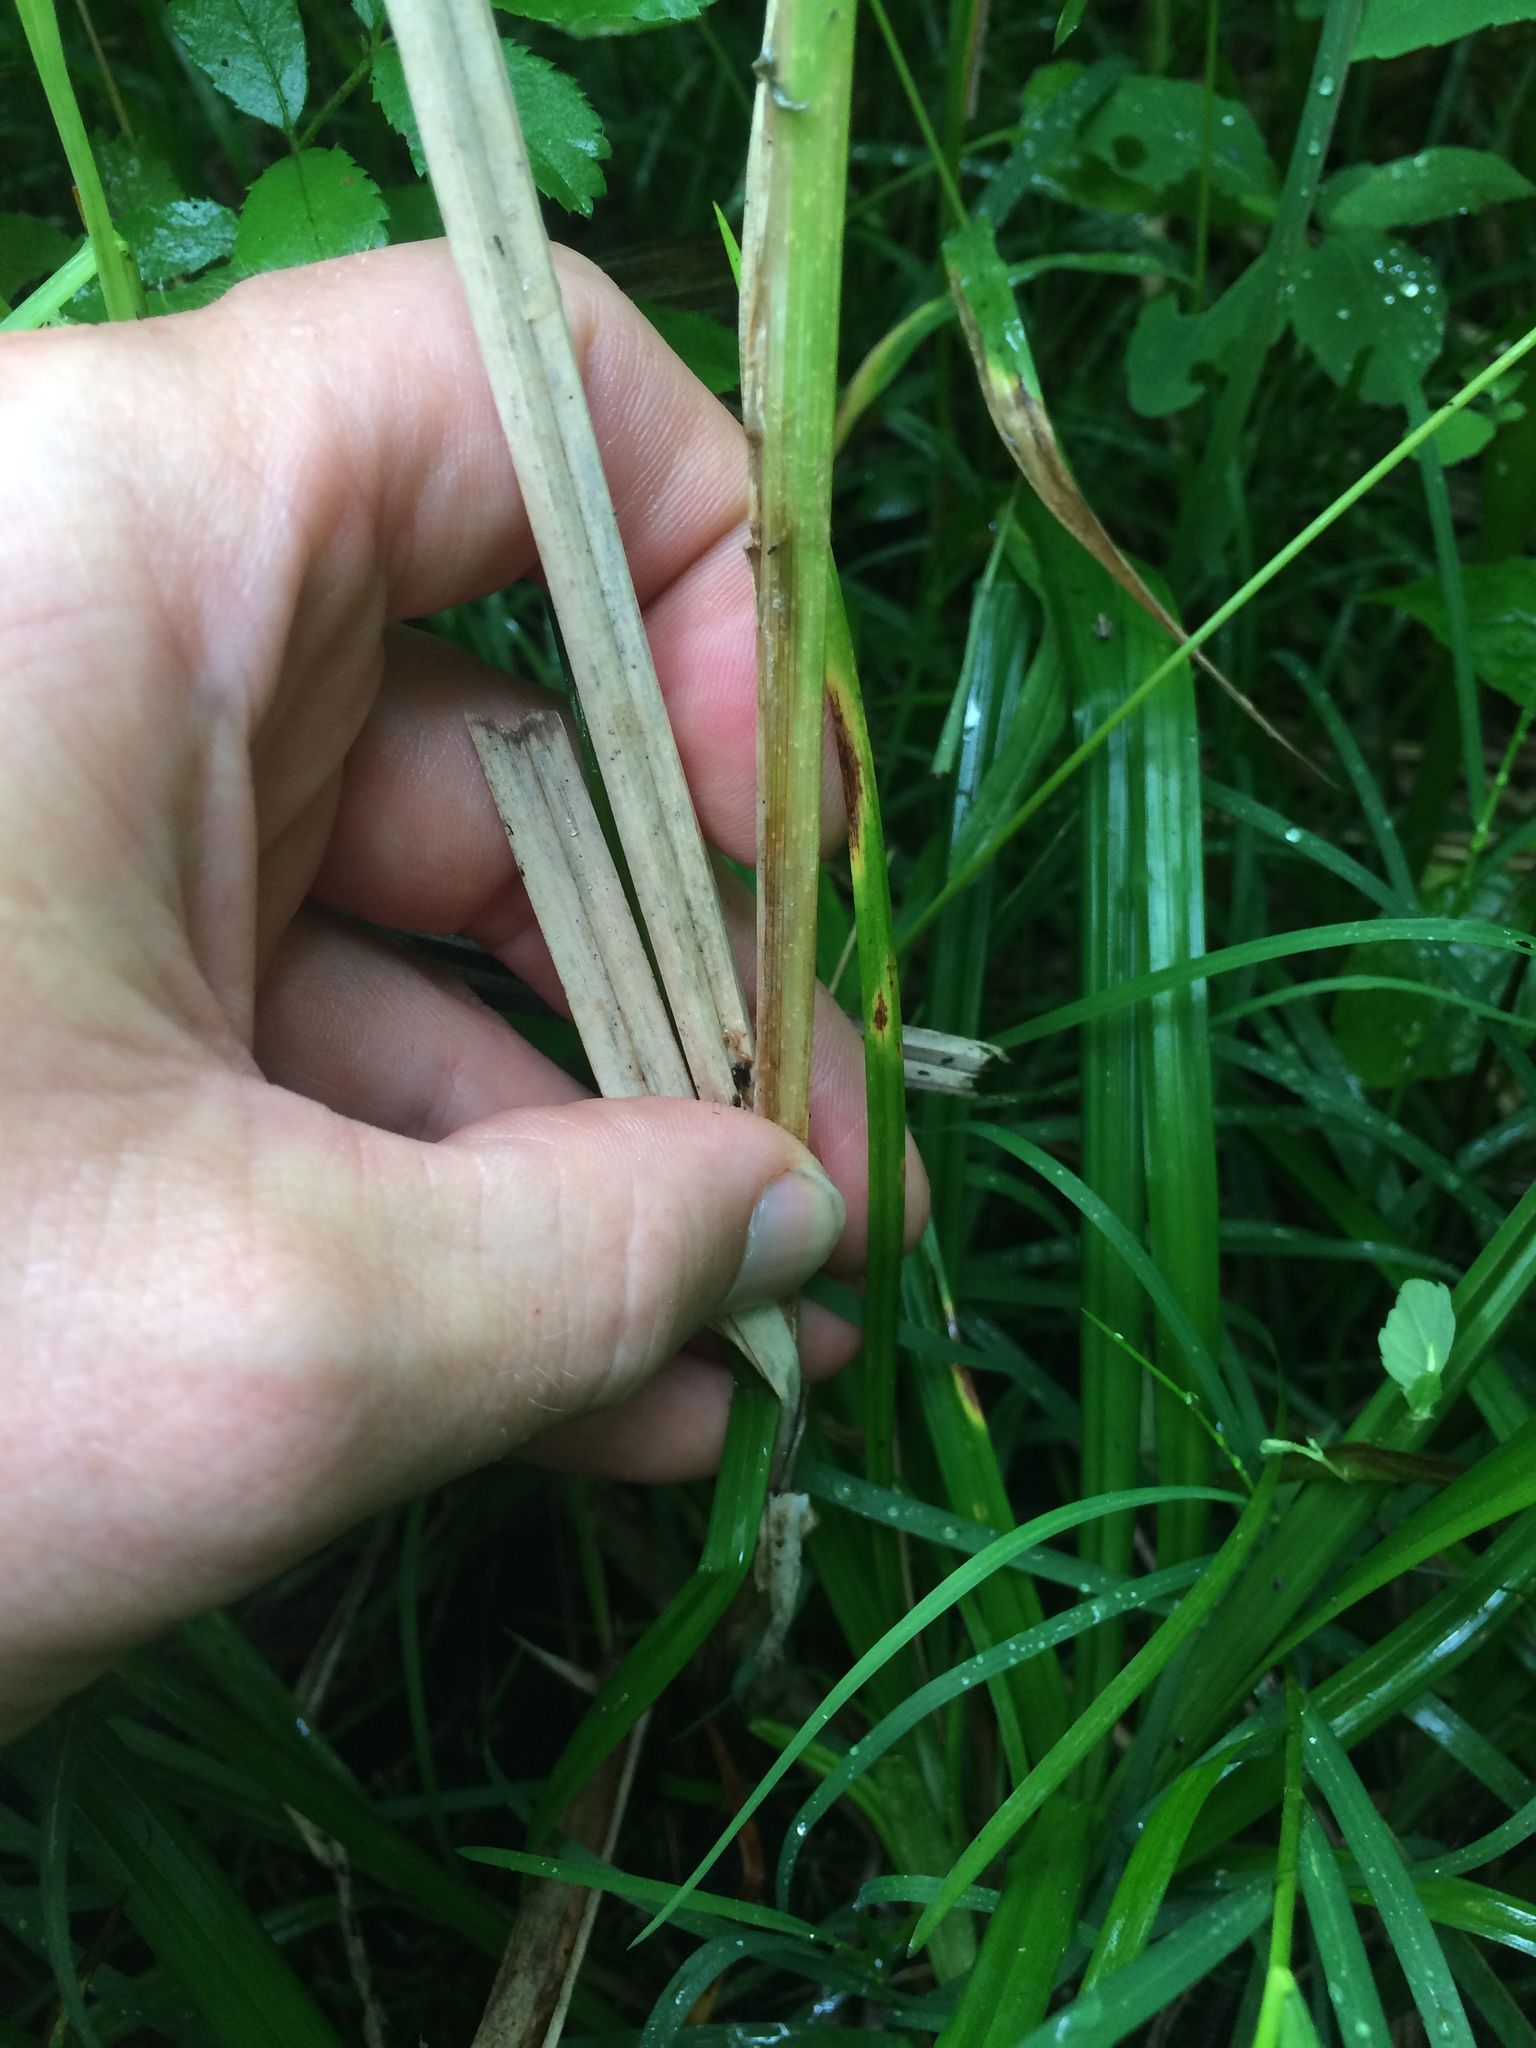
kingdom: Plantae
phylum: Tracheophyta
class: Liliopsida
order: Poales
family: Cyperaceae
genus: Carex
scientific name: Carex lacustris
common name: Common lake sedge
